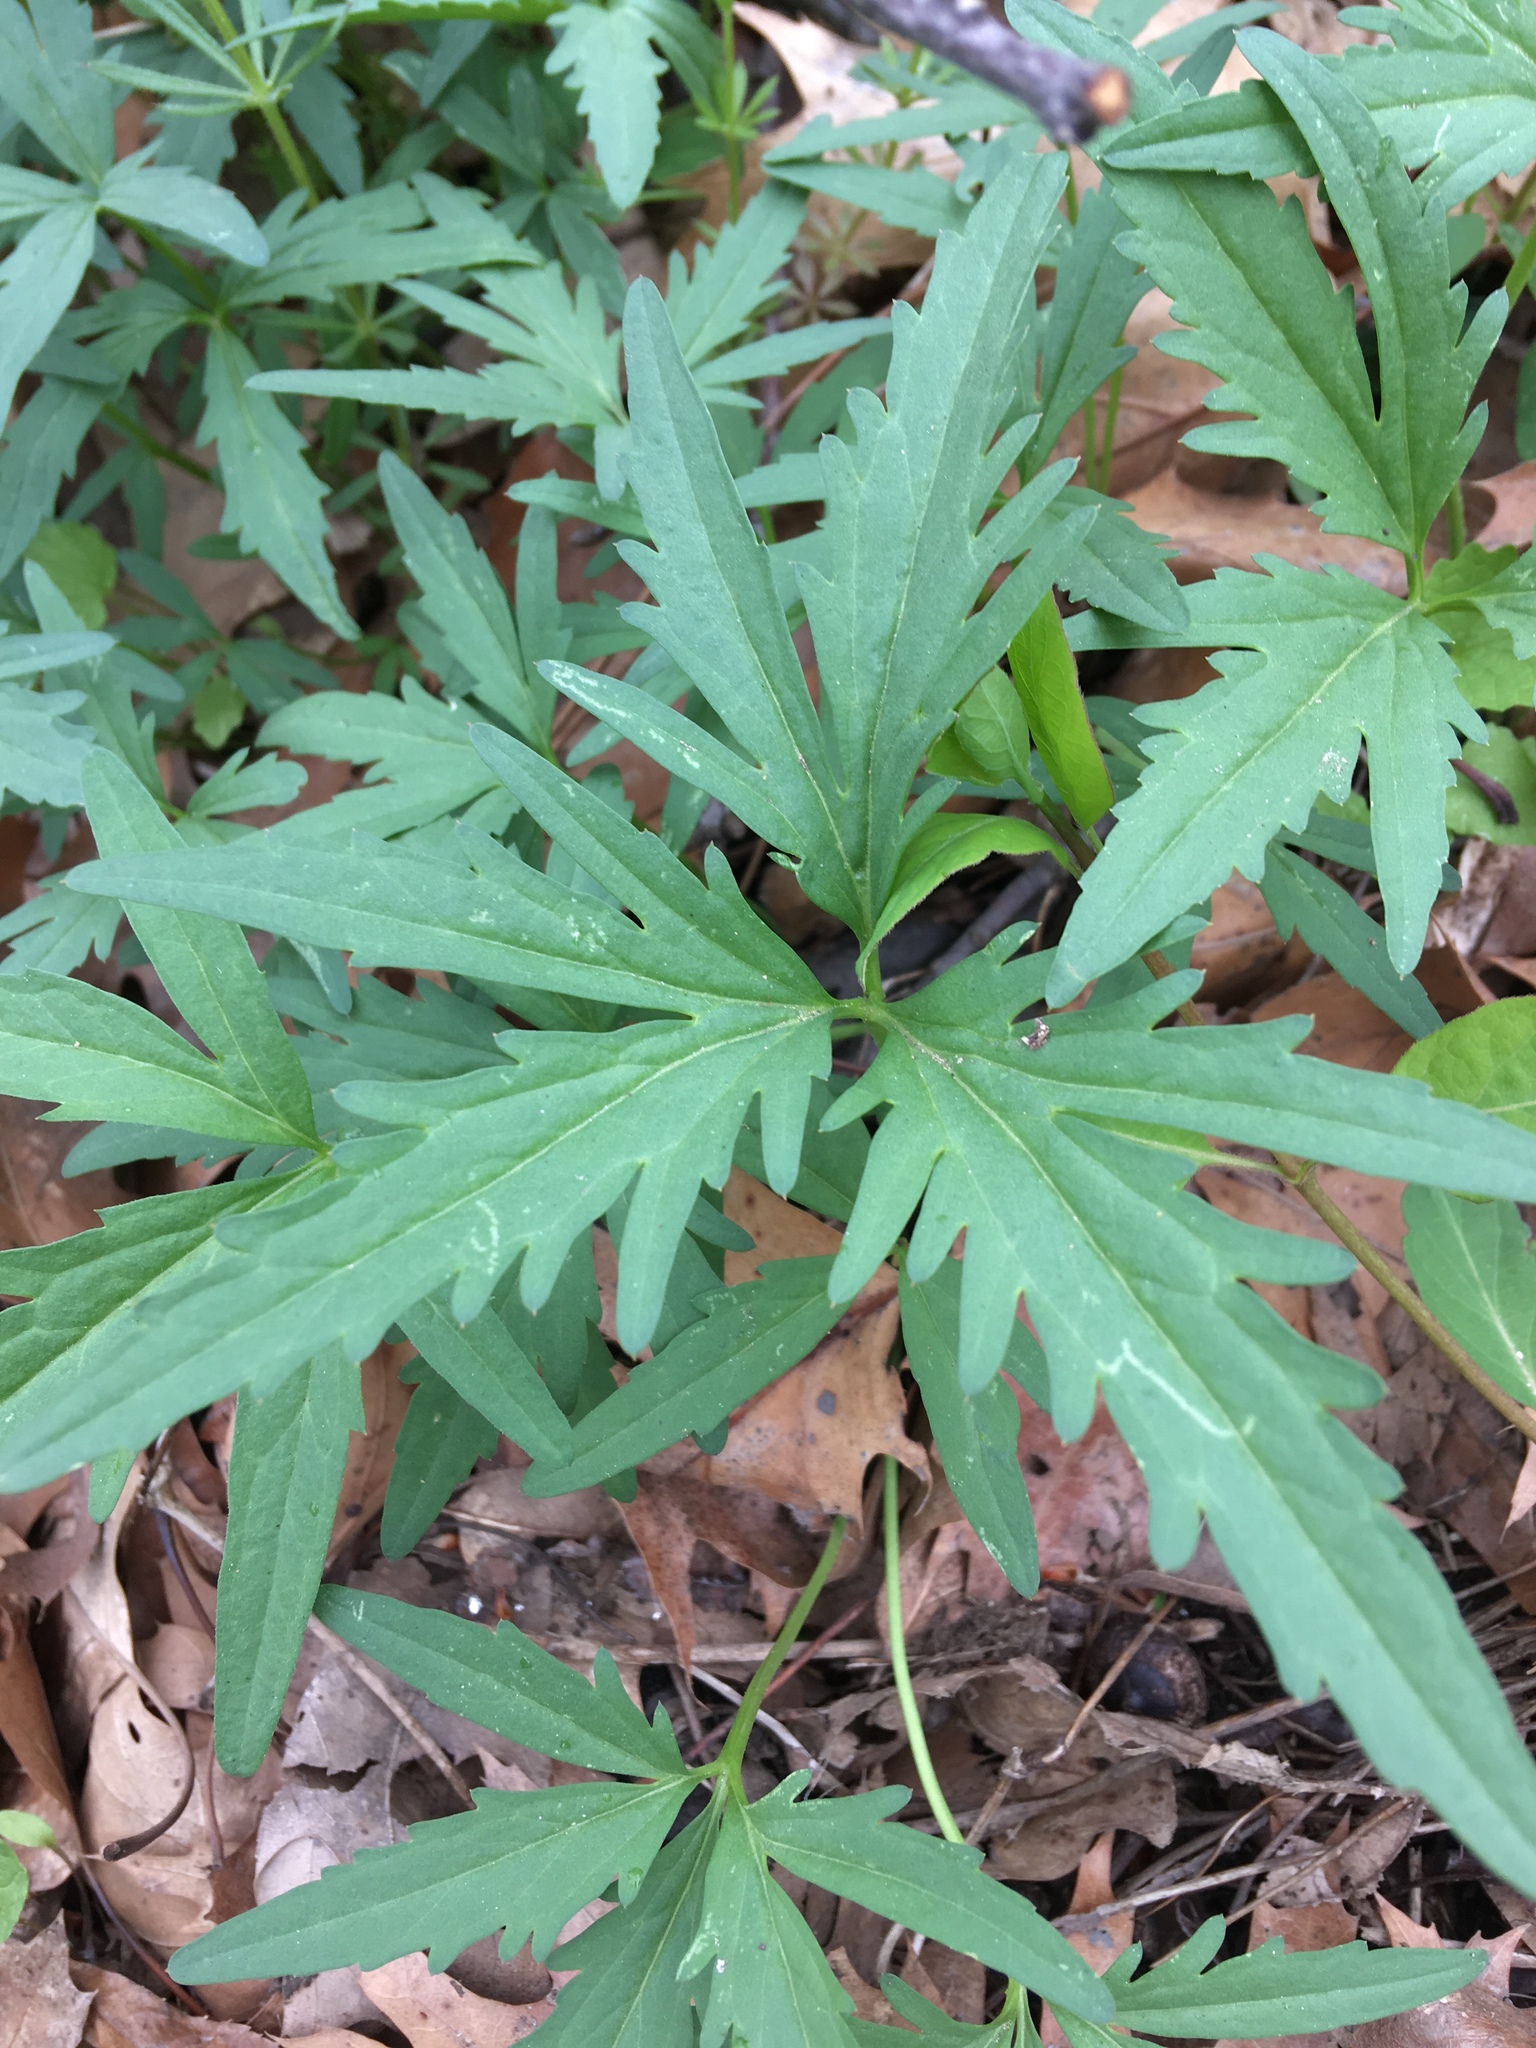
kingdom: Plantae
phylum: Tracheophyta
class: Magnoliopsida
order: Brassicales
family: Brassicaceae
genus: Cardamine
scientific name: Cardamine concatenata
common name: Cut-leaf toothcup
